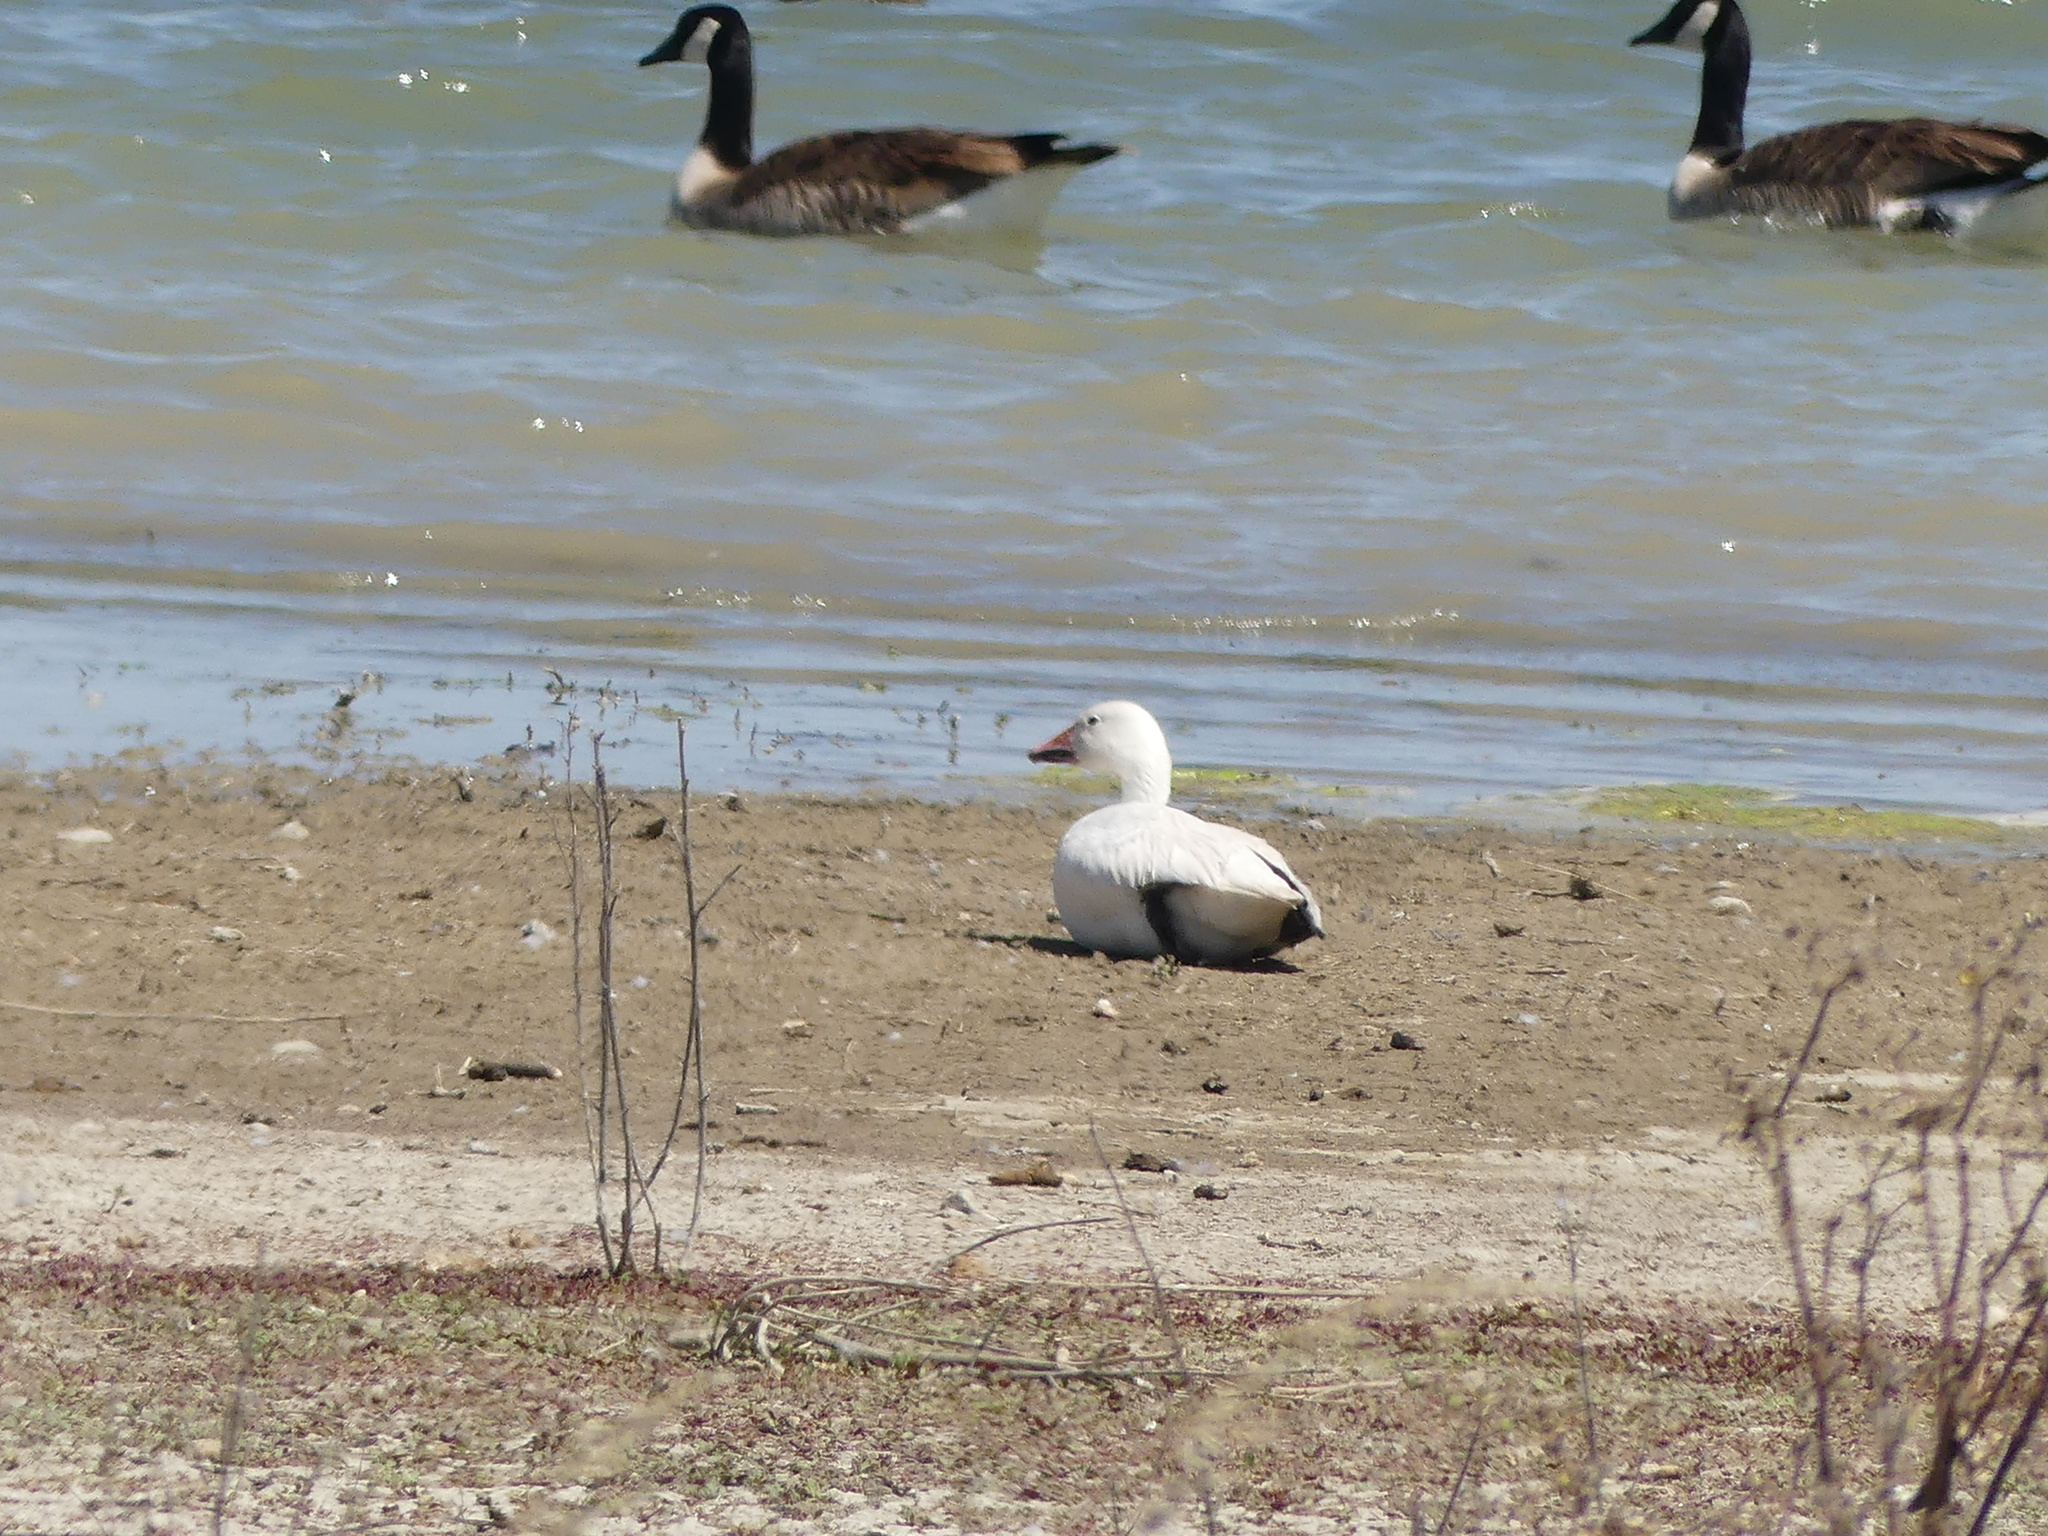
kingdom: Animalia
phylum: Chordata
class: Aves
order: Anseriformes
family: Anatidae
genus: Anser
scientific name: Anser caerulescens
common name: Snow goose
